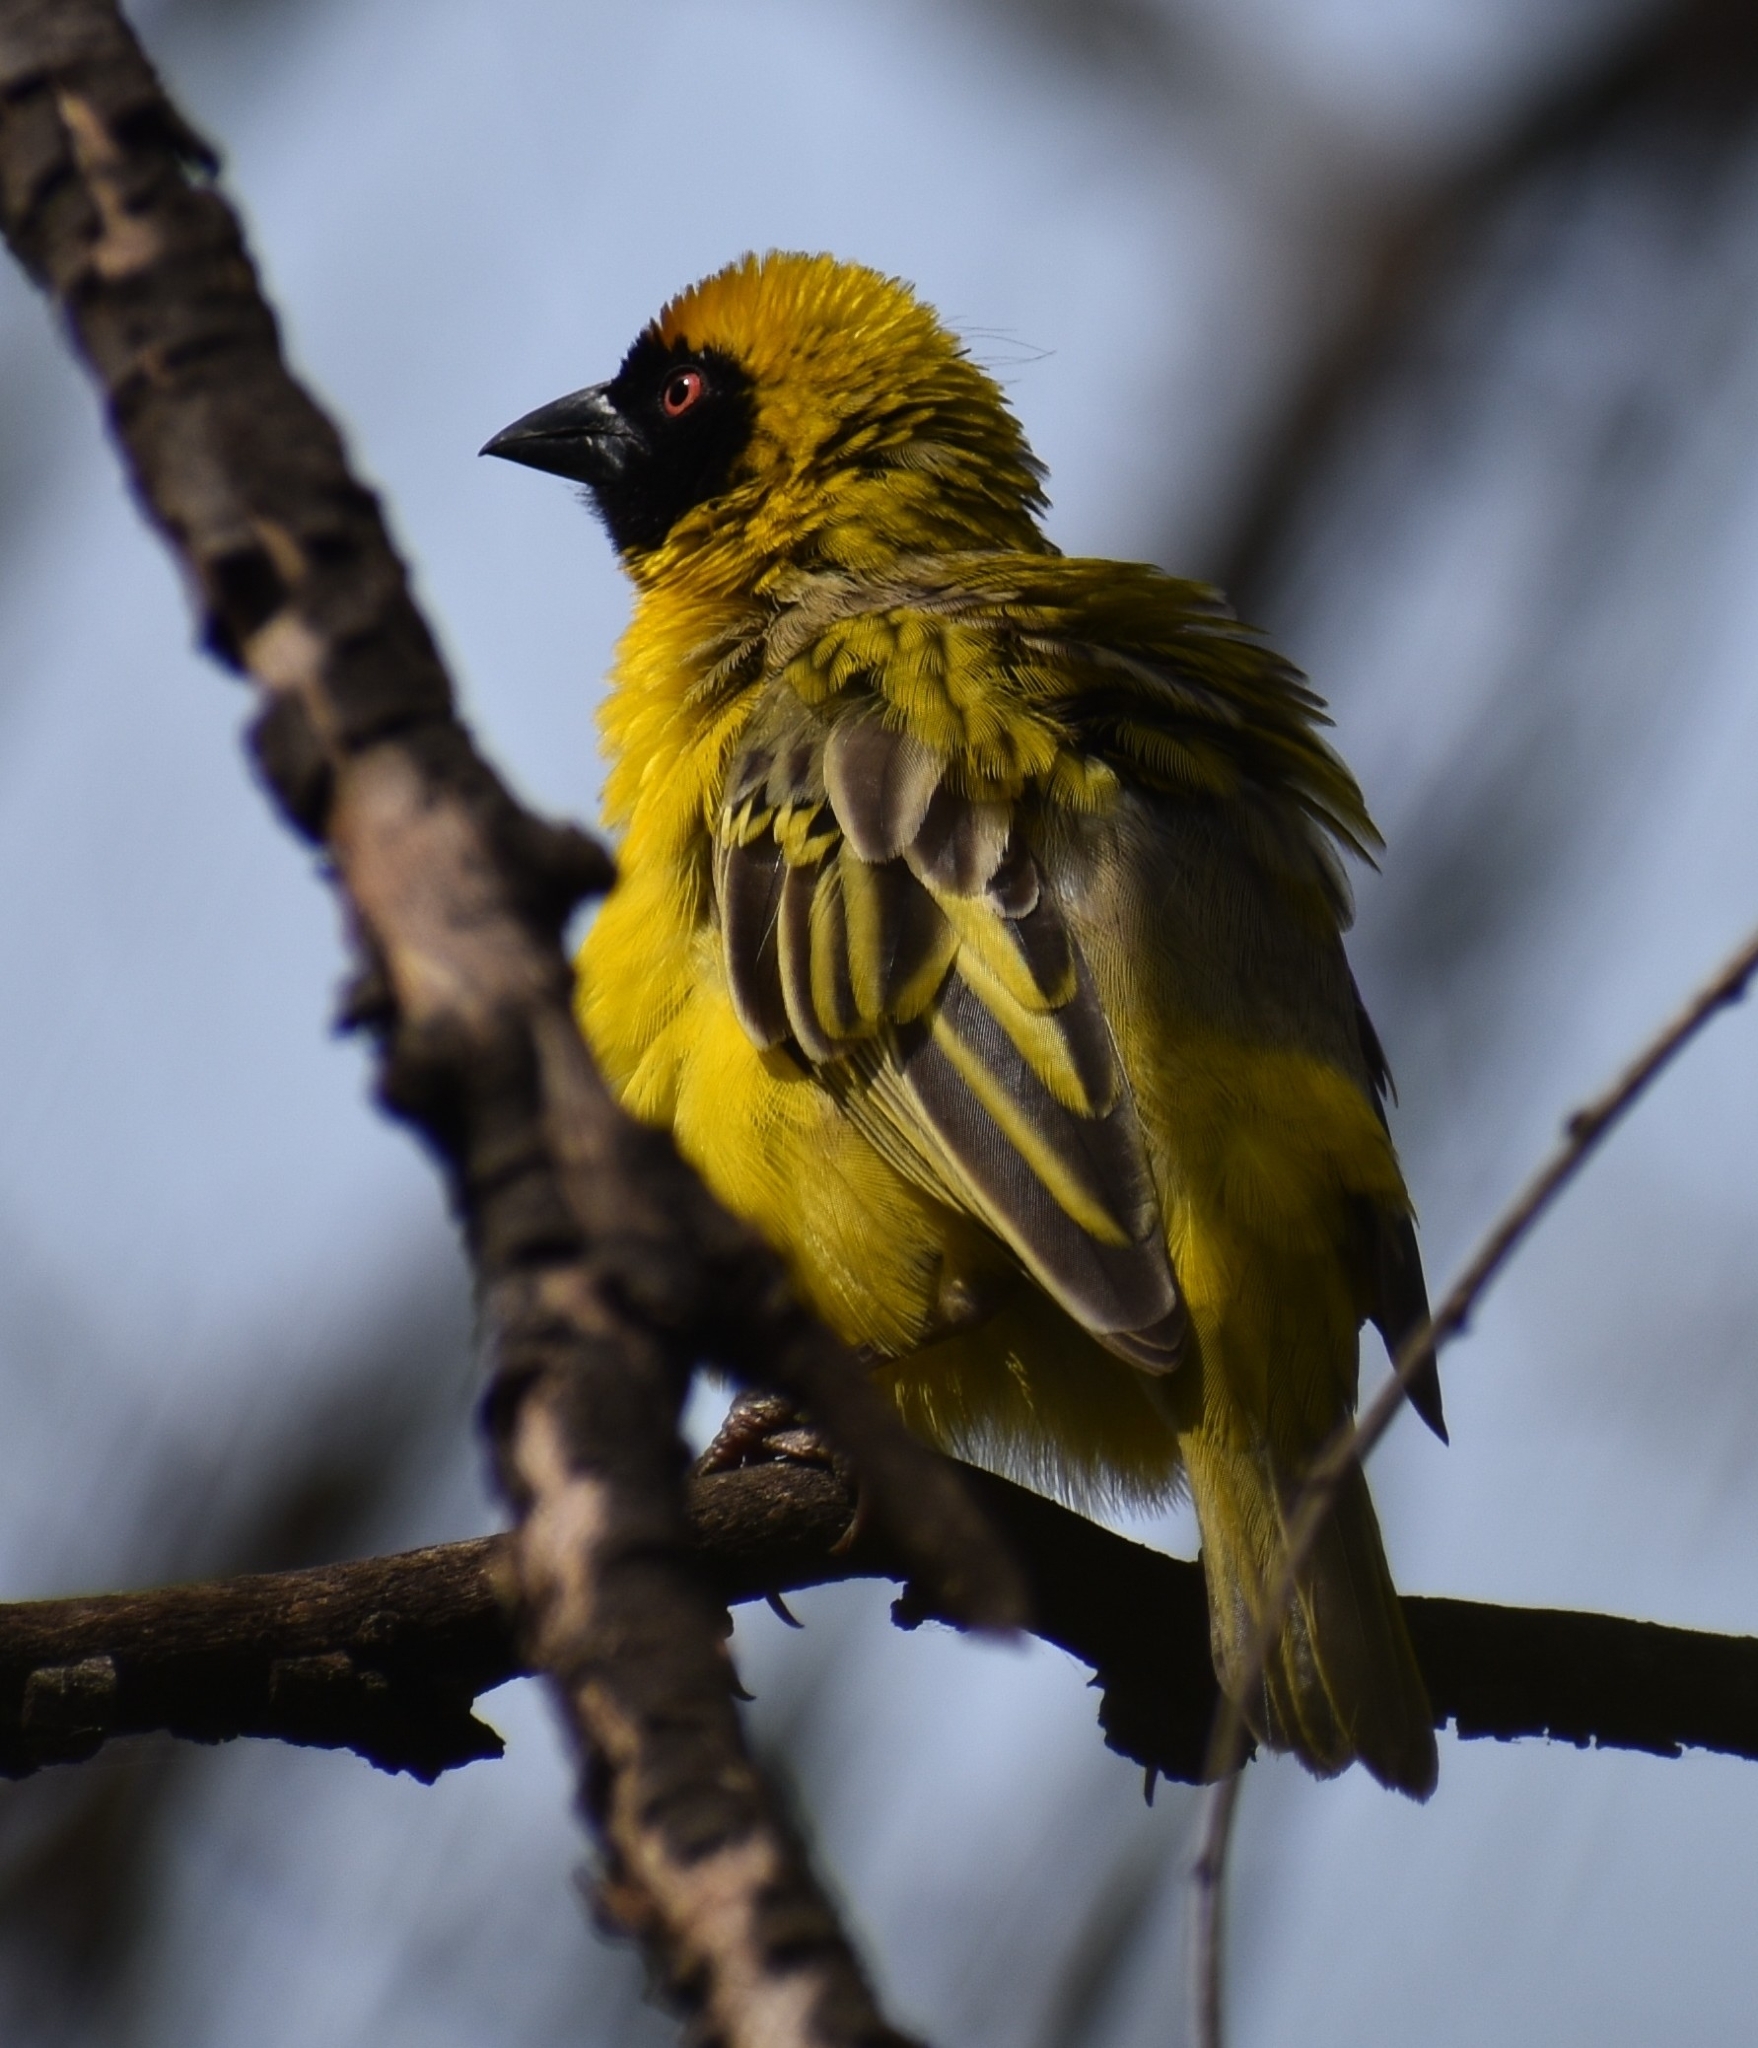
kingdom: Animalia
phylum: Chordata
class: Aves
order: Passeriformes
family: Ploceidae
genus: Ploceus
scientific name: Ploceus velatus
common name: Southern masked weaver
